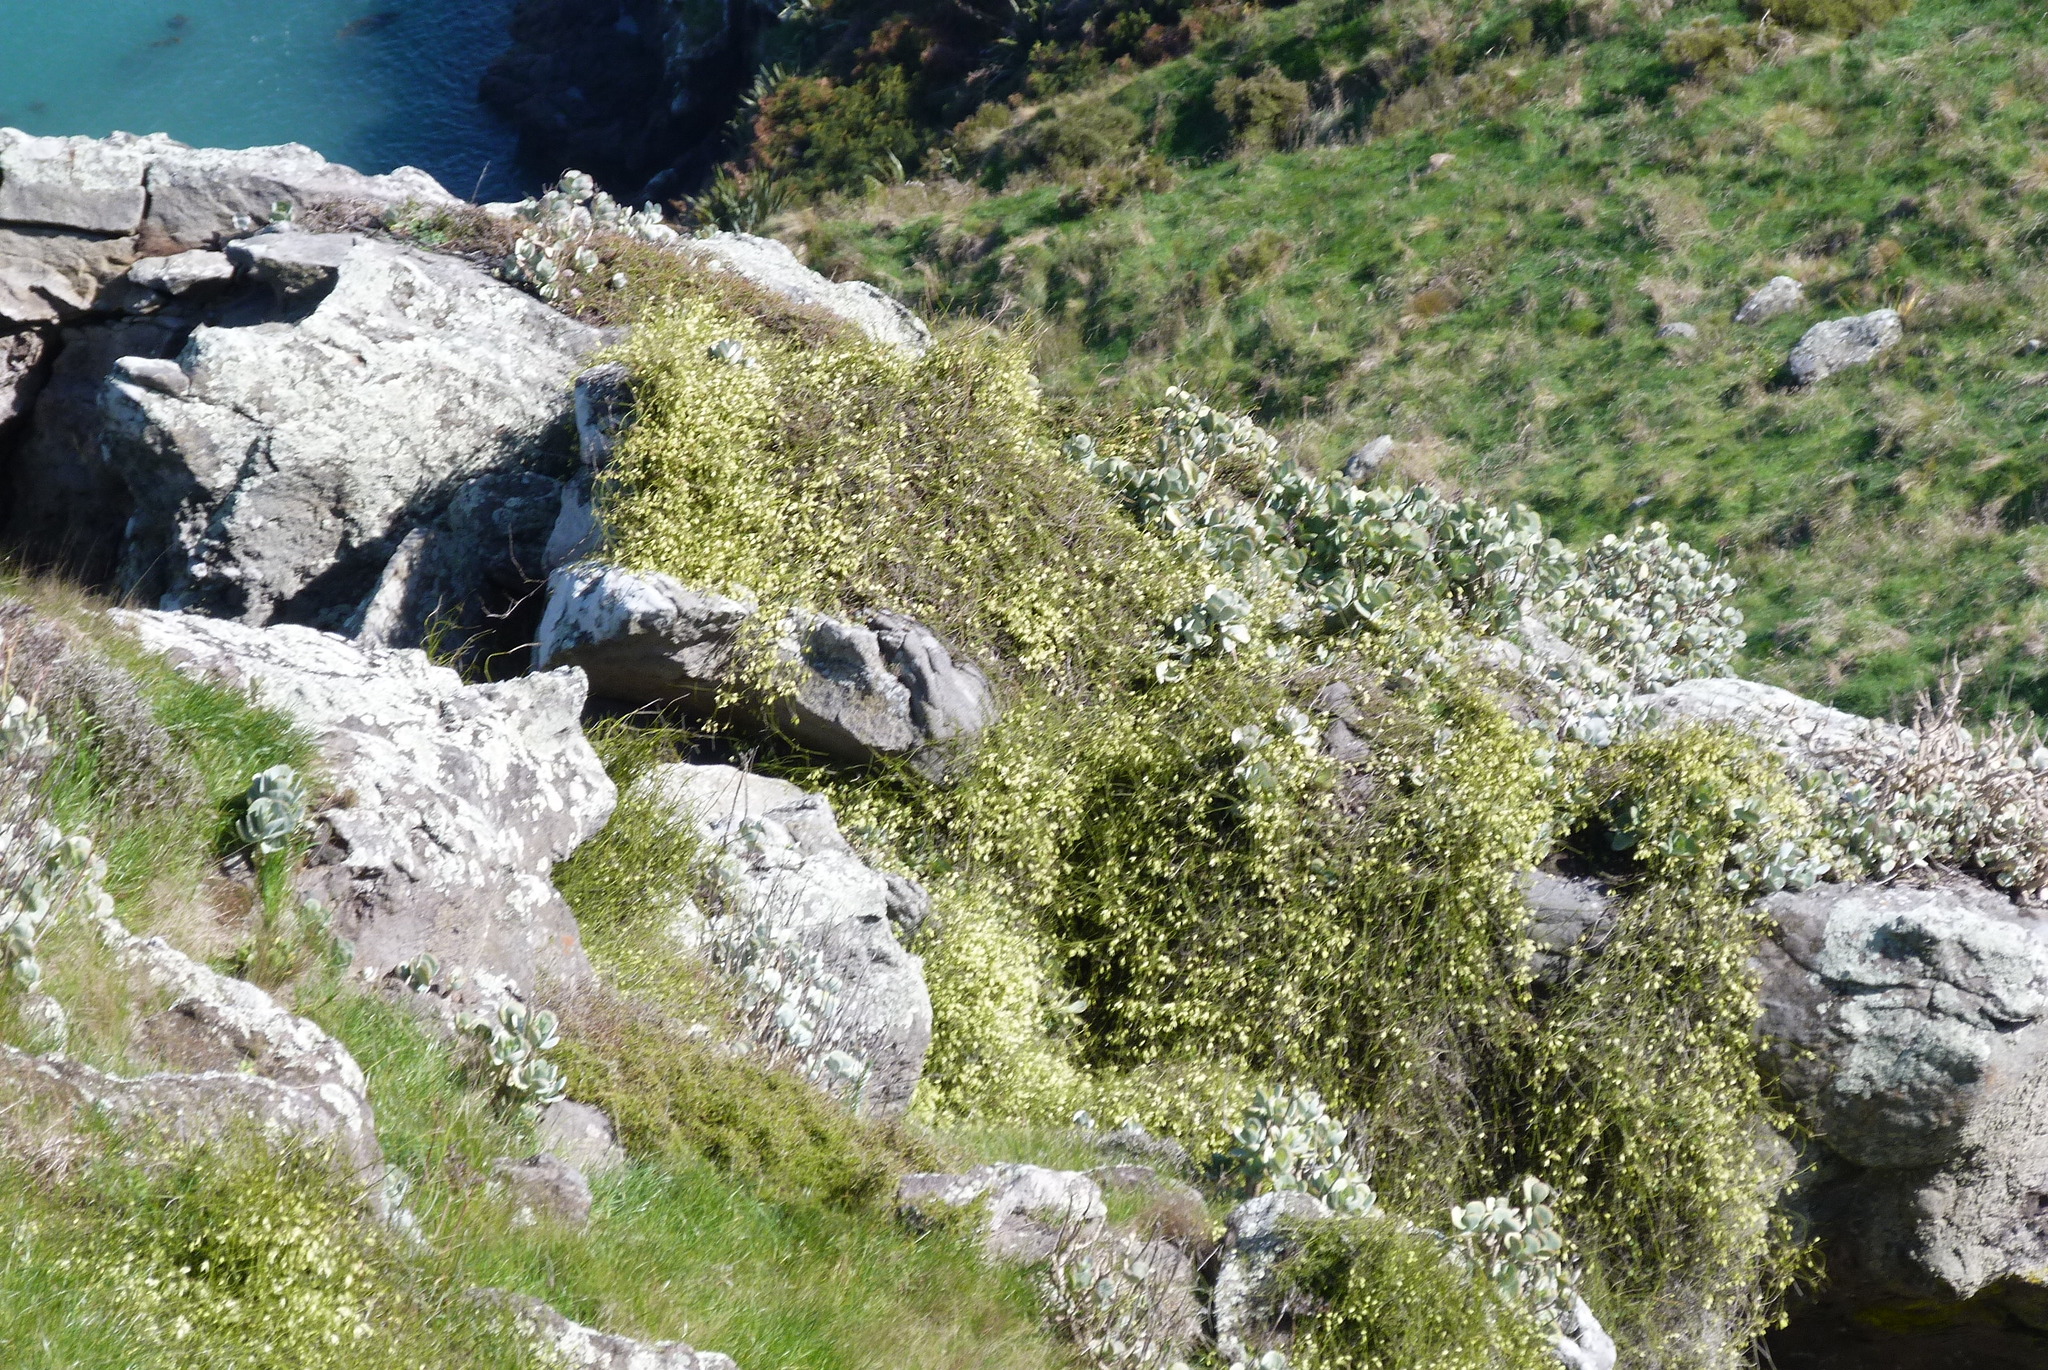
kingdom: Plantae
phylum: Tracheophyta
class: Magnoliopsida
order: Ranunculales
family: Ranunculaceae
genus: Clematis
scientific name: Clematis afoliata
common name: Rush-stem clematis
